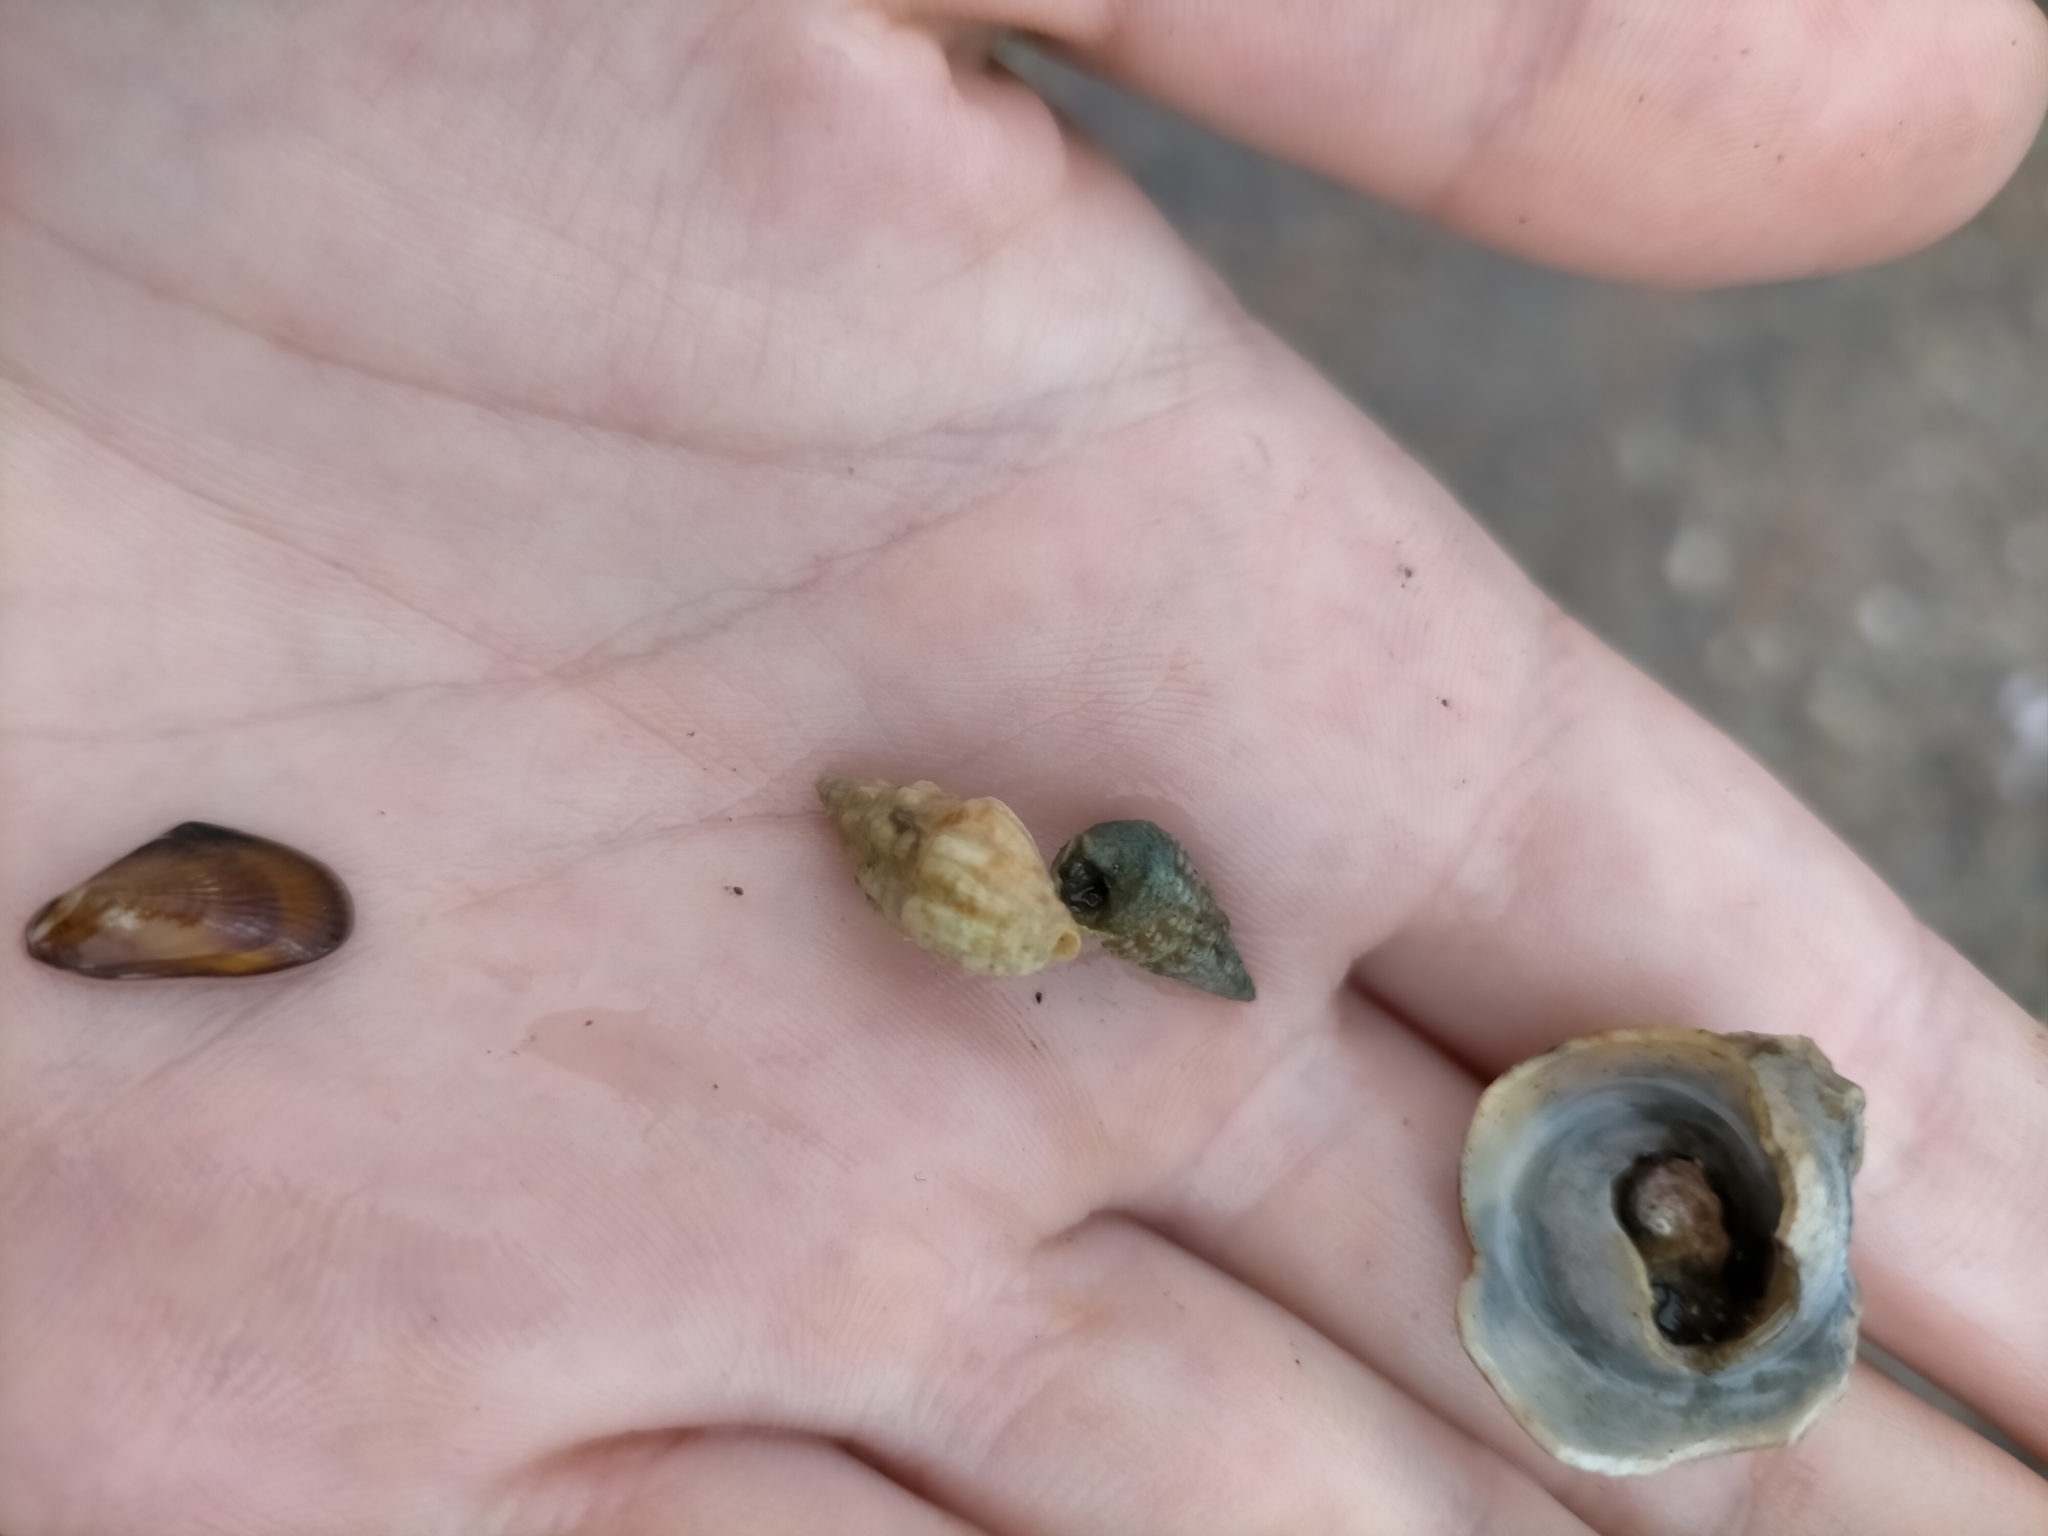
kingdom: Animalia
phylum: Mollusca
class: Gastropoda
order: Trochida
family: Phasianellidae
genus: Phasianella
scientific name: Phasianella australis
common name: Painted lady
